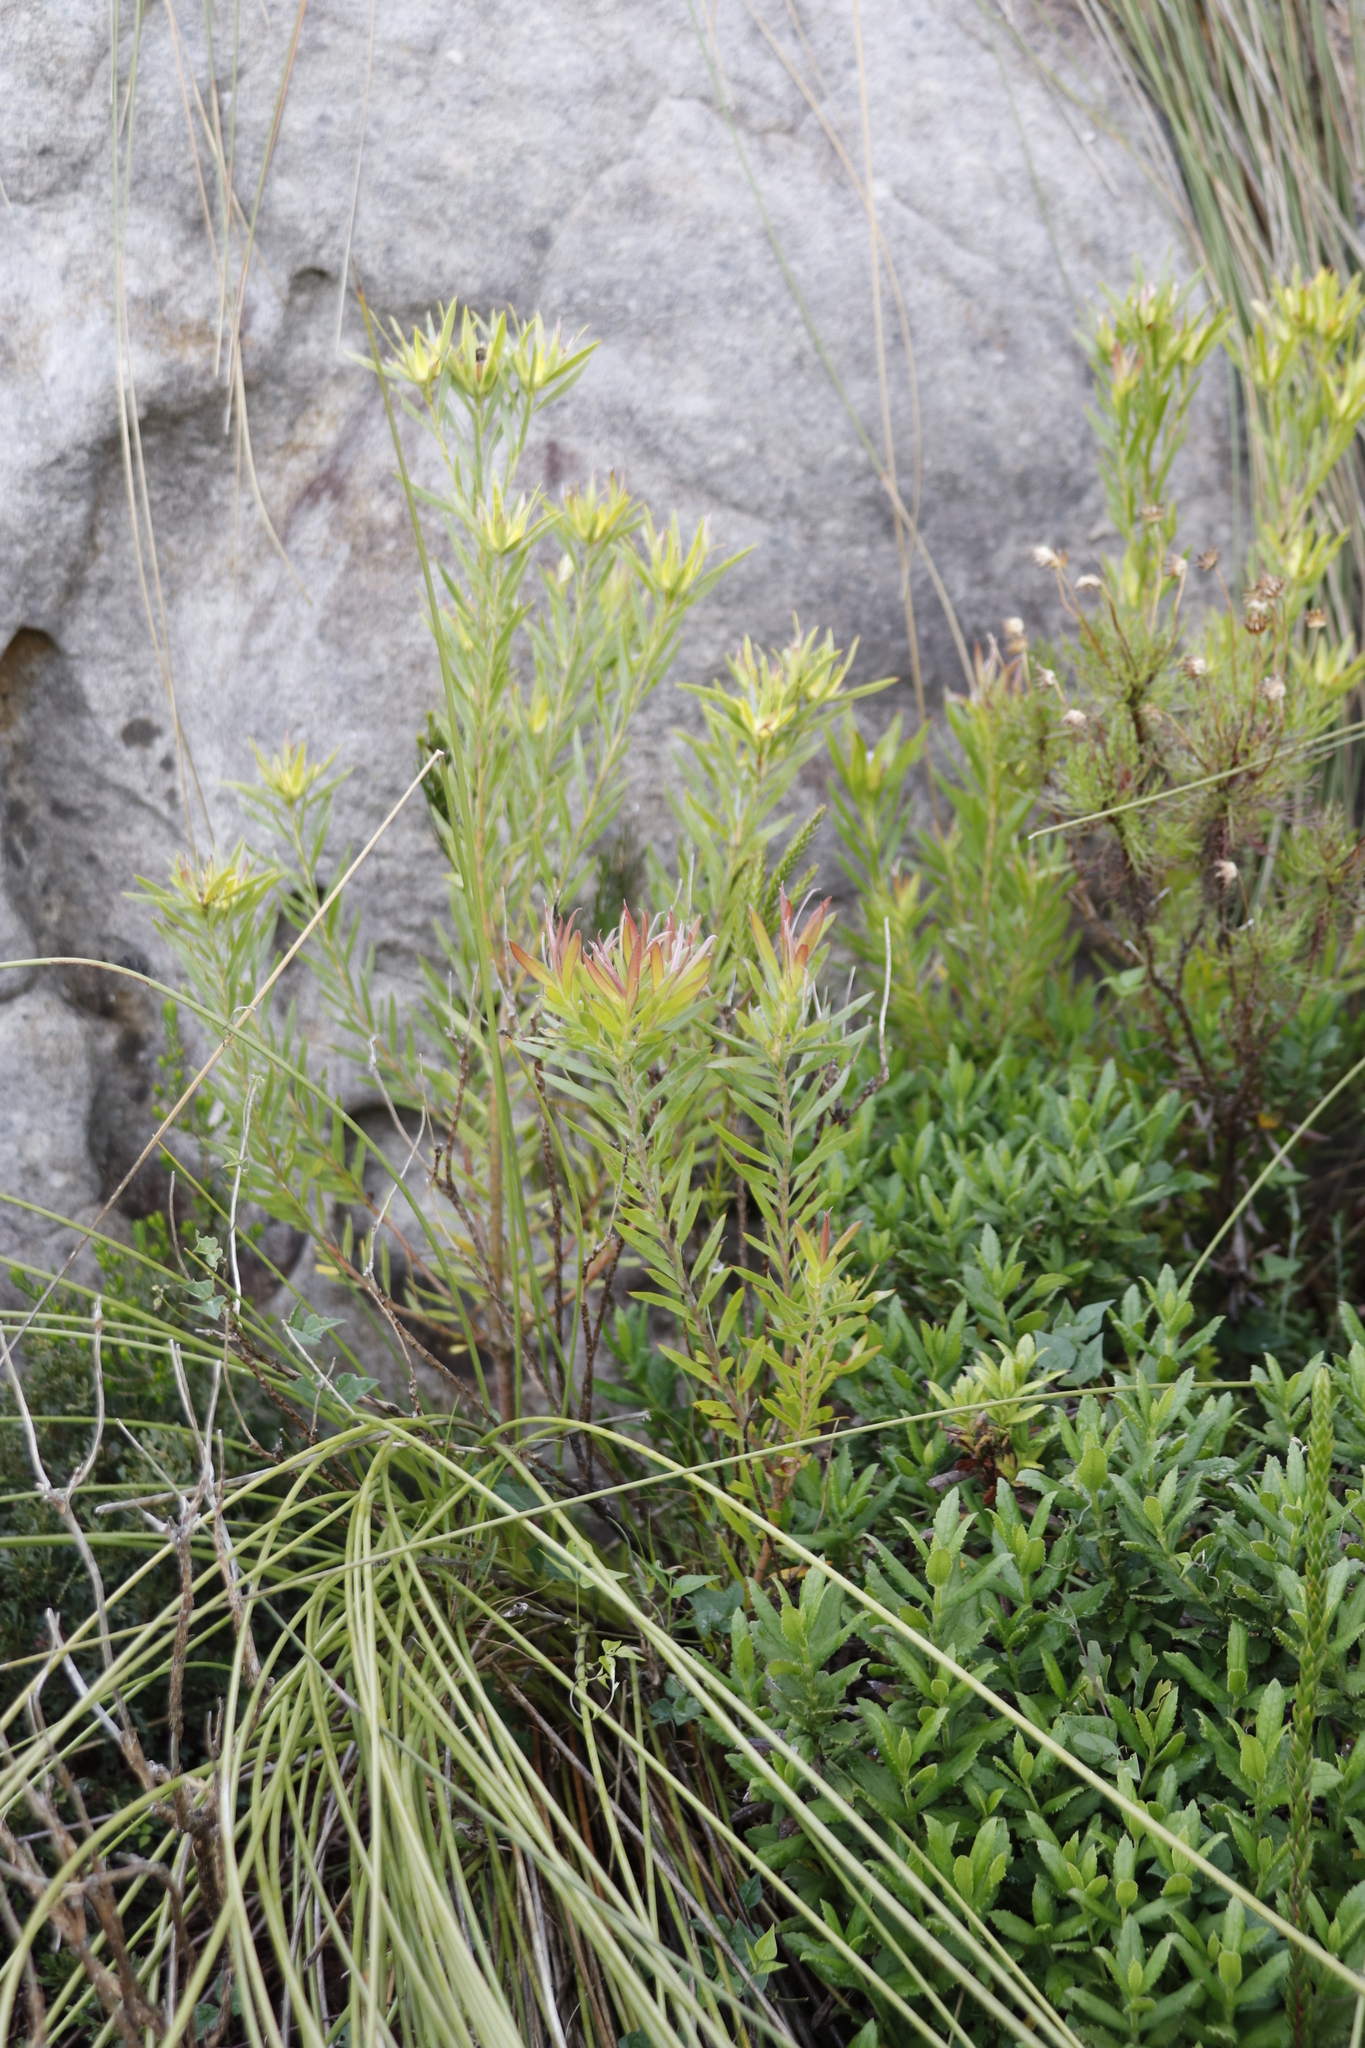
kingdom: Plantae
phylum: Tracheophyta
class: Magnoliopsida
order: Proteales
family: Proteaceae
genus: Leucadendron
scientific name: Leucadendron xanthoconus
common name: Sickle-leaf conebush
